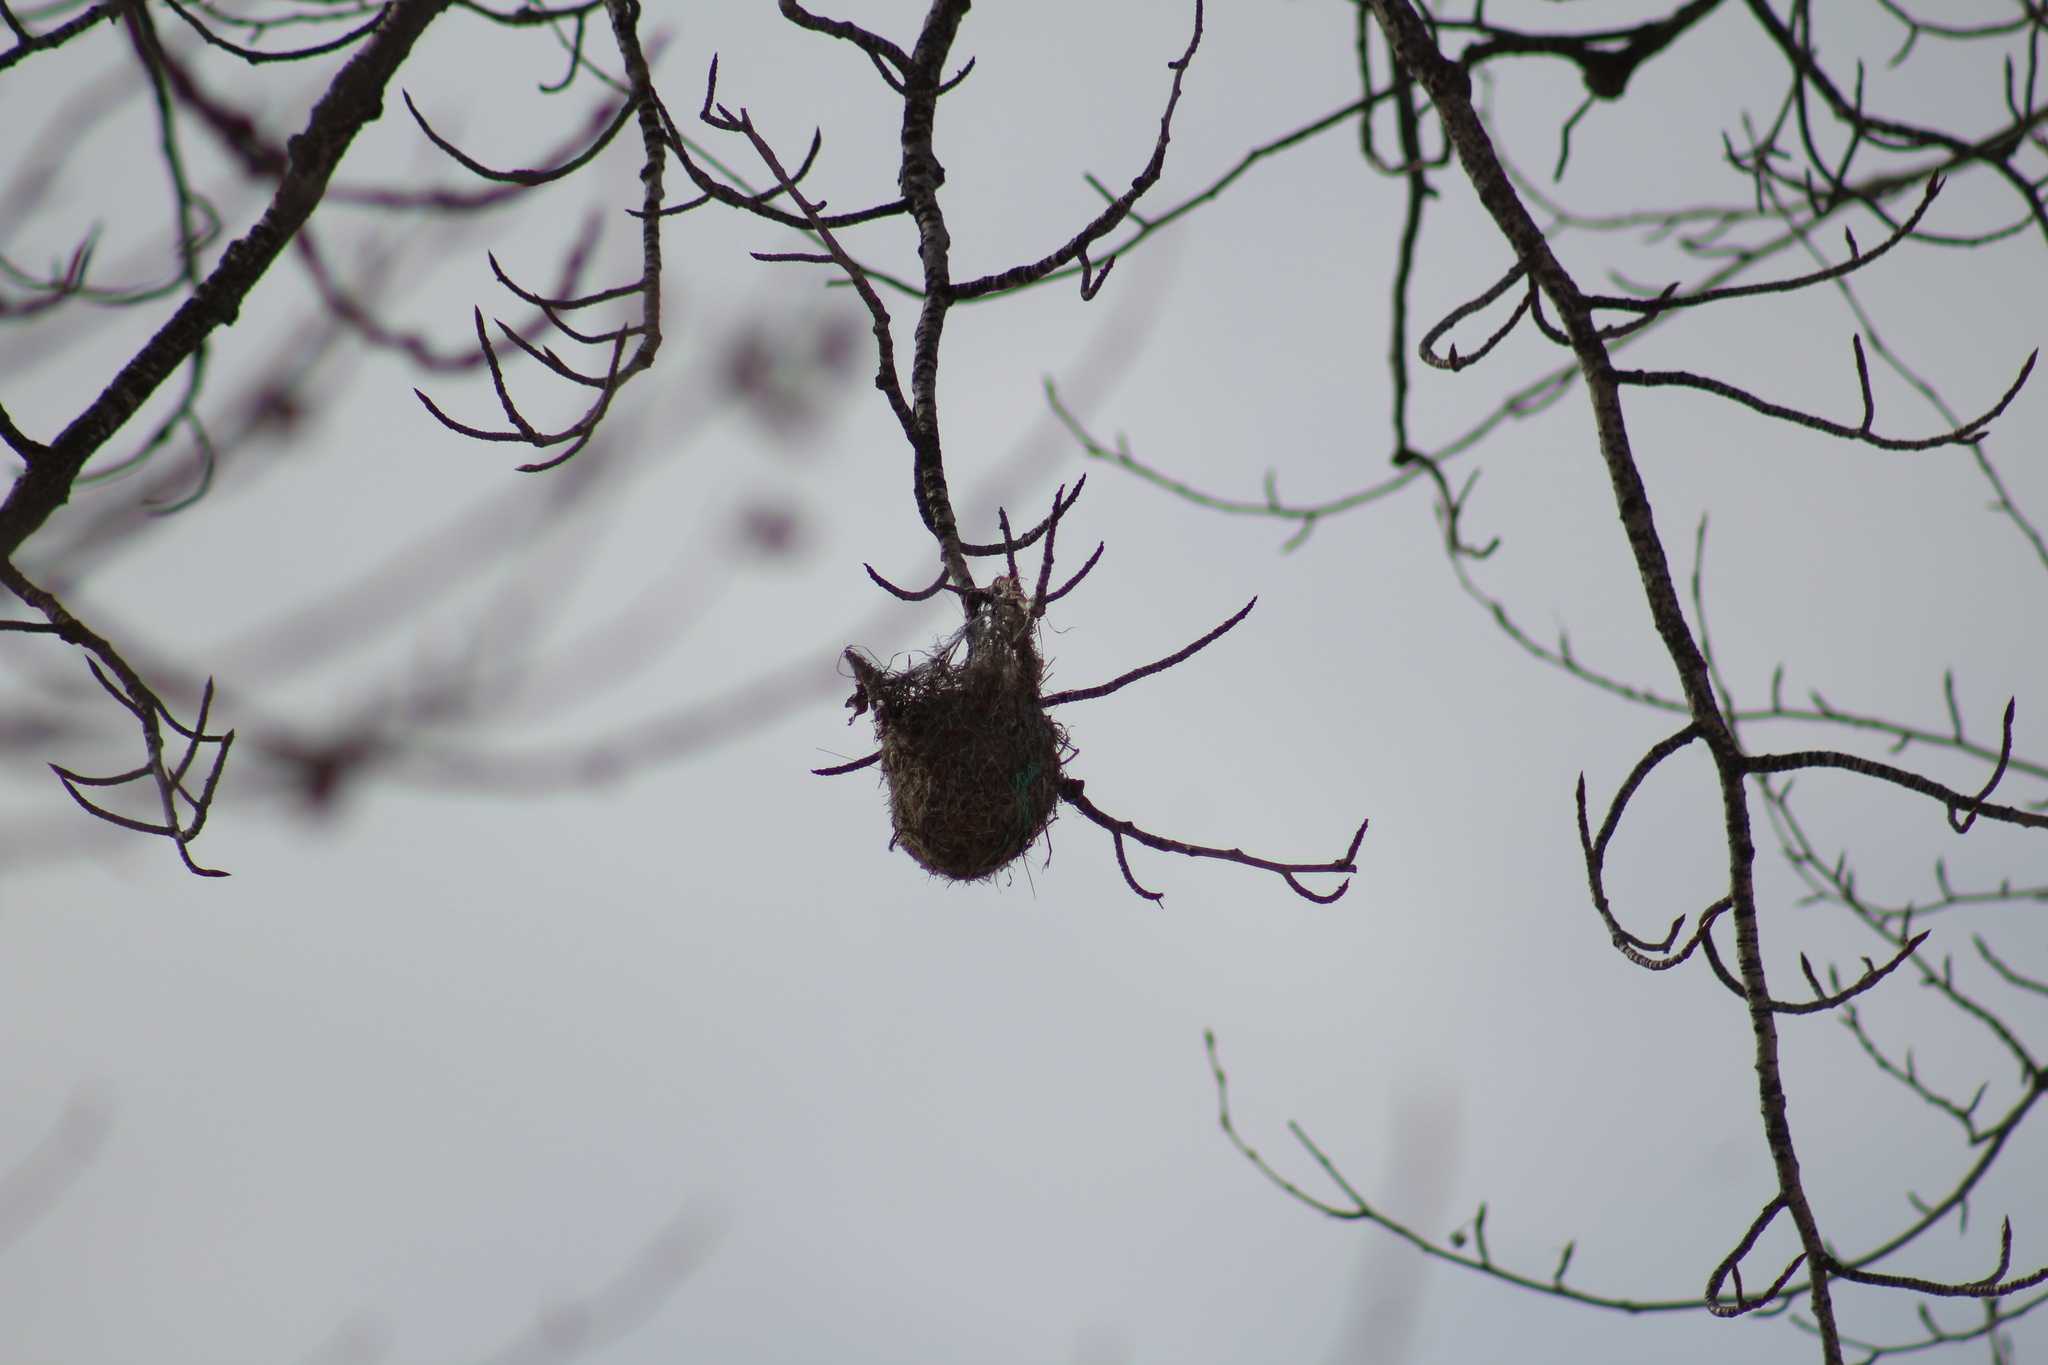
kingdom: Animalia
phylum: Chordata
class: Aves
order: Passeriformes
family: Icteridae
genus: Icterus
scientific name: Icterus bullockii
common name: Bullock's oriole
